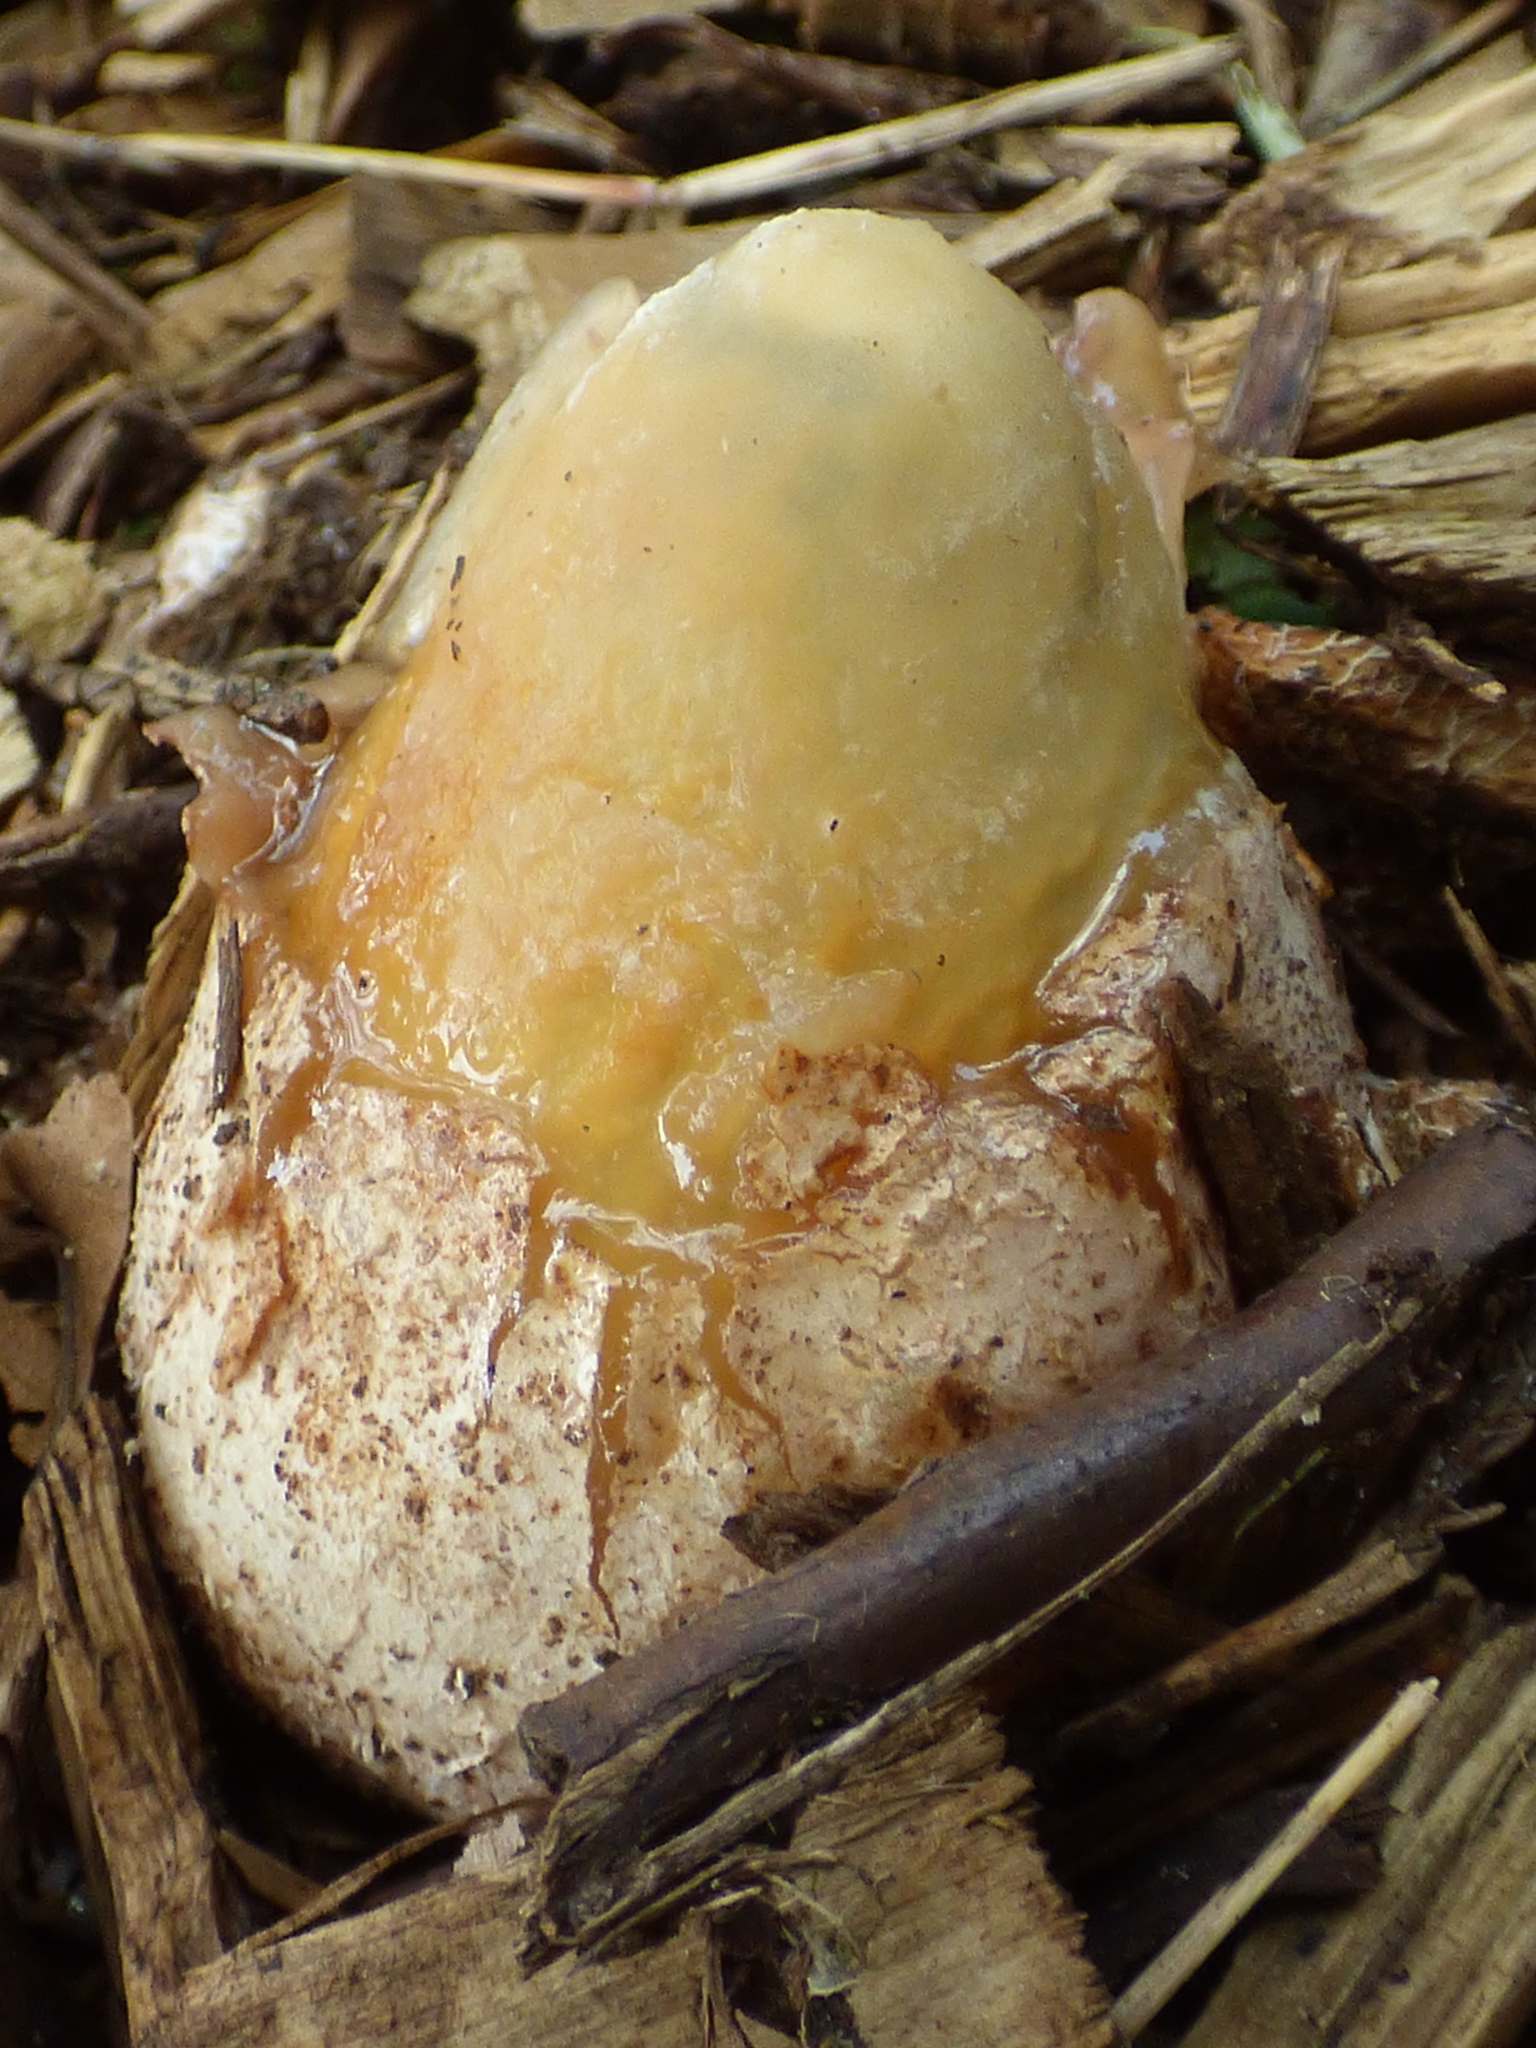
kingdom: Fungi
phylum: Basidiomycota
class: Agaricomycetes
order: Phallales
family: Phallaceae
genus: Phallus
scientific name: Phallus ravenelii
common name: Ravenel's stinkhorn
